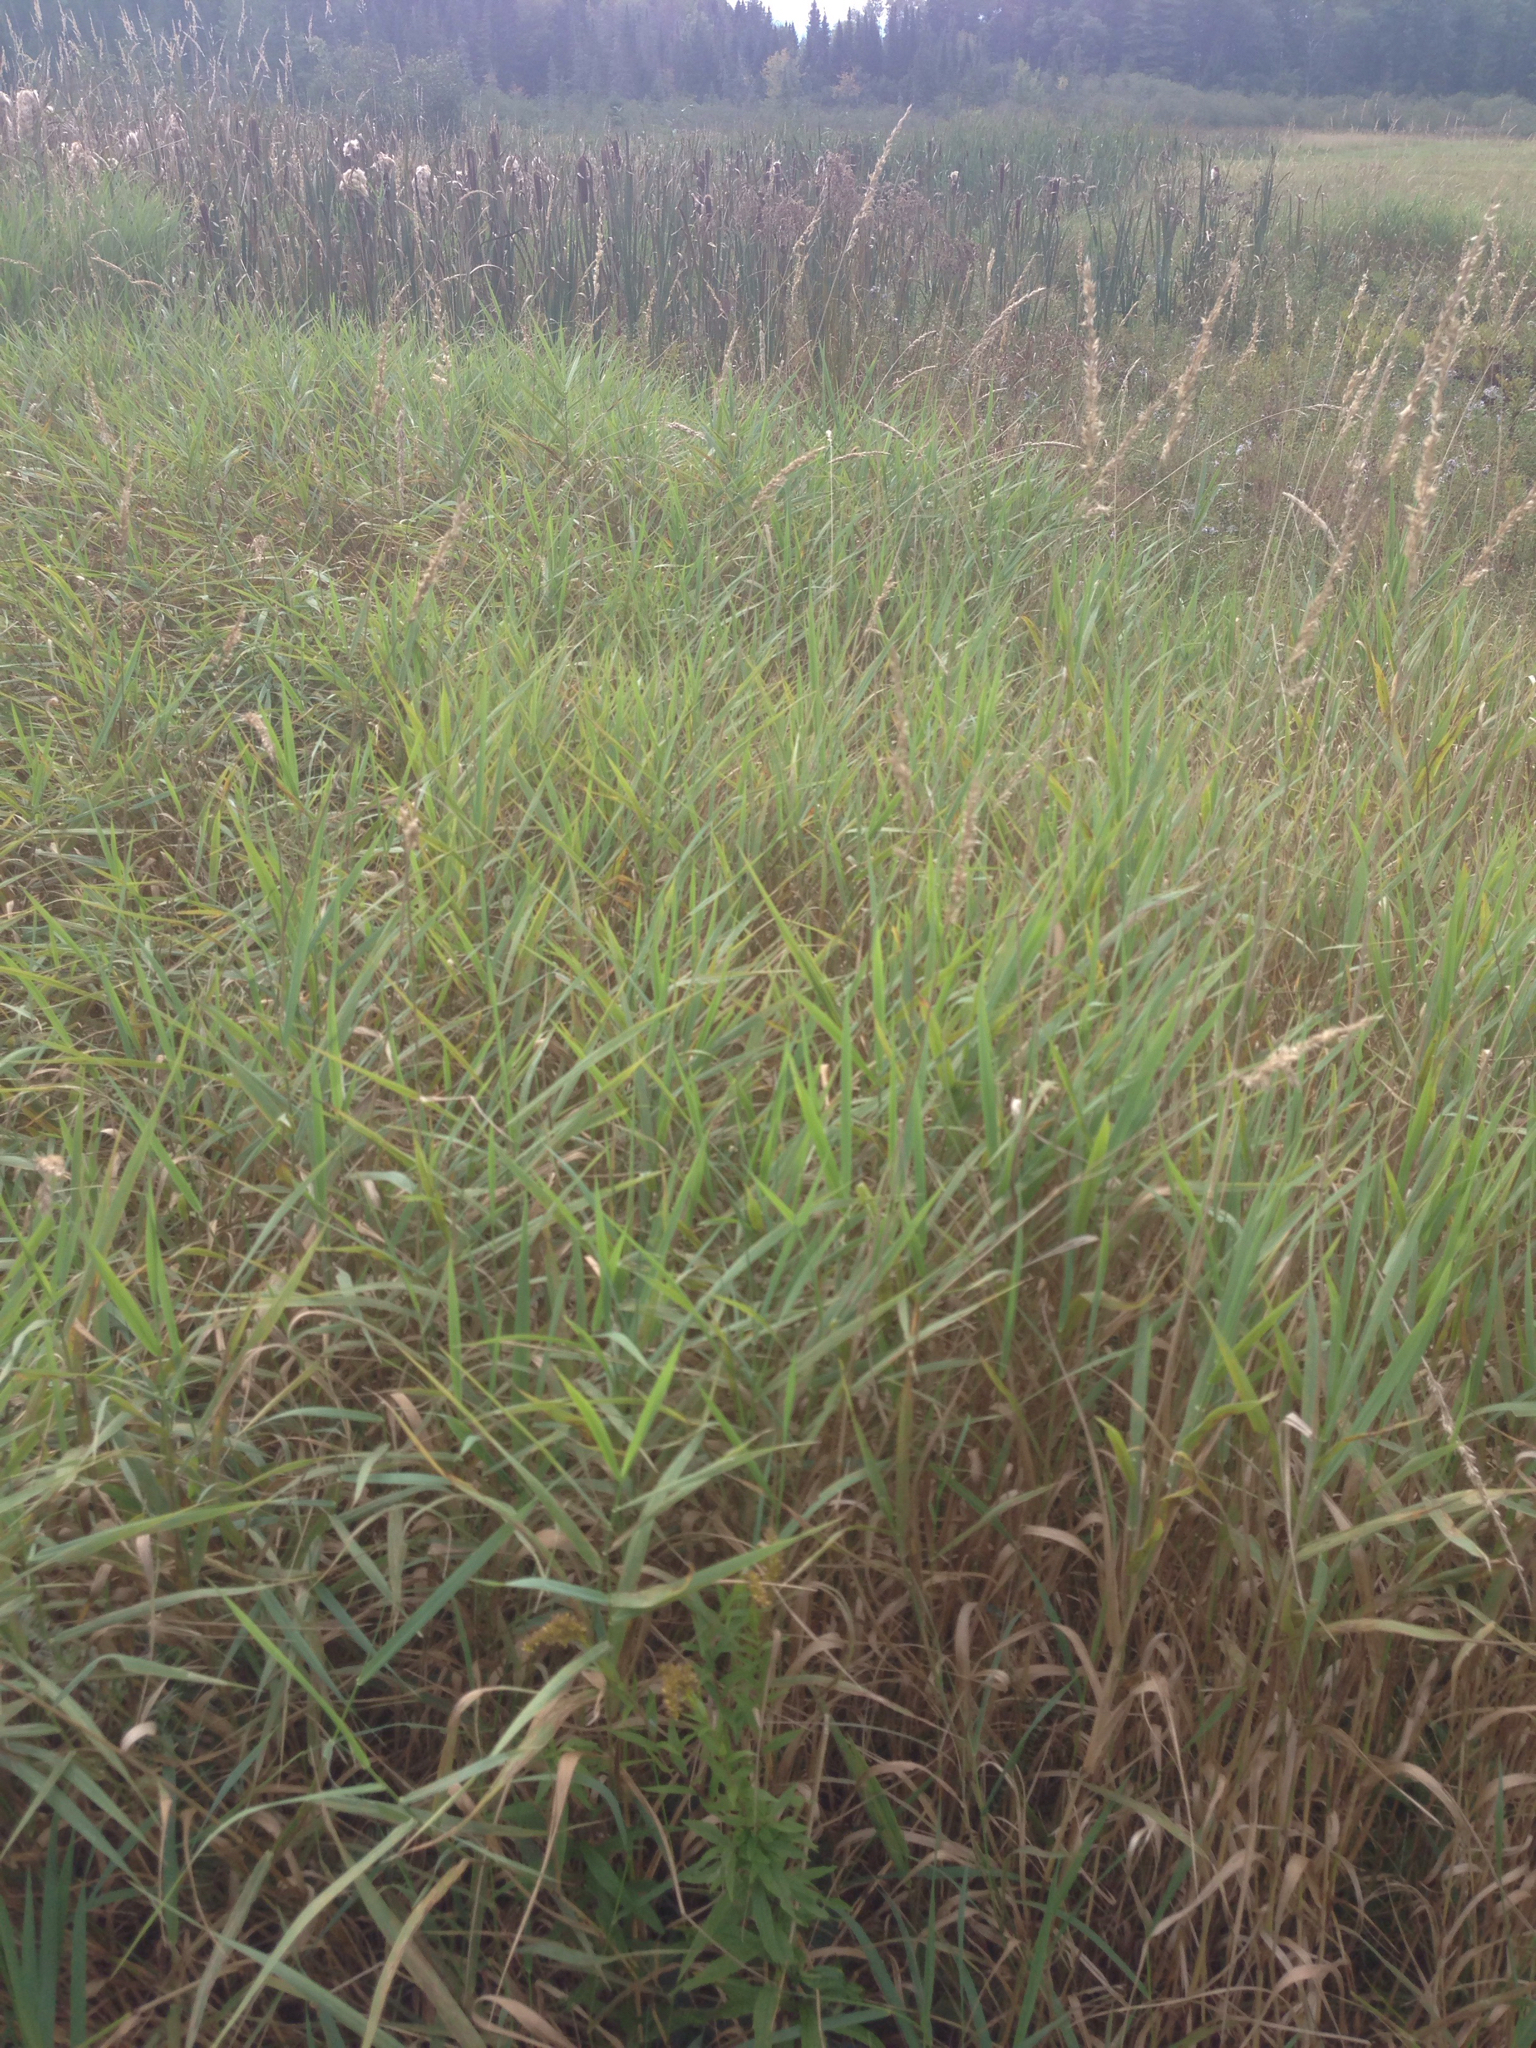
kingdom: Plantae
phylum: Tracheophyta
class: Liliopsida
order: Poales
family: Poaceae
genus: Phalaris
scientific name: Phalaris arundinacea
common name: Reed canary-grass
